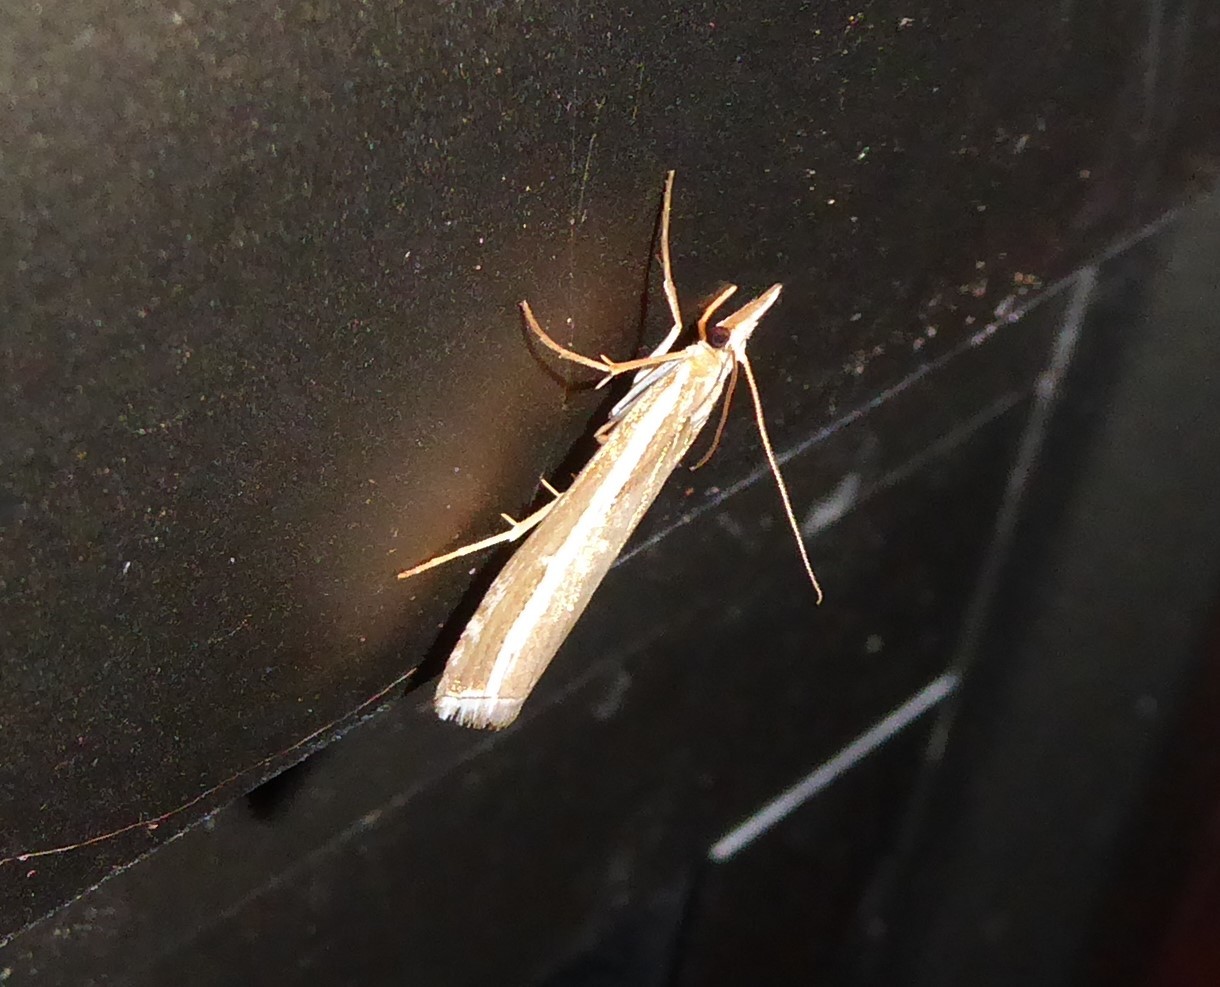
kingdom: Animalia
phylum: Arthropoda
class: Insecta
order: Lepidoptera
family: Crambidae
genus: Orocrambus
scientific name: Orocrambus vittellus
